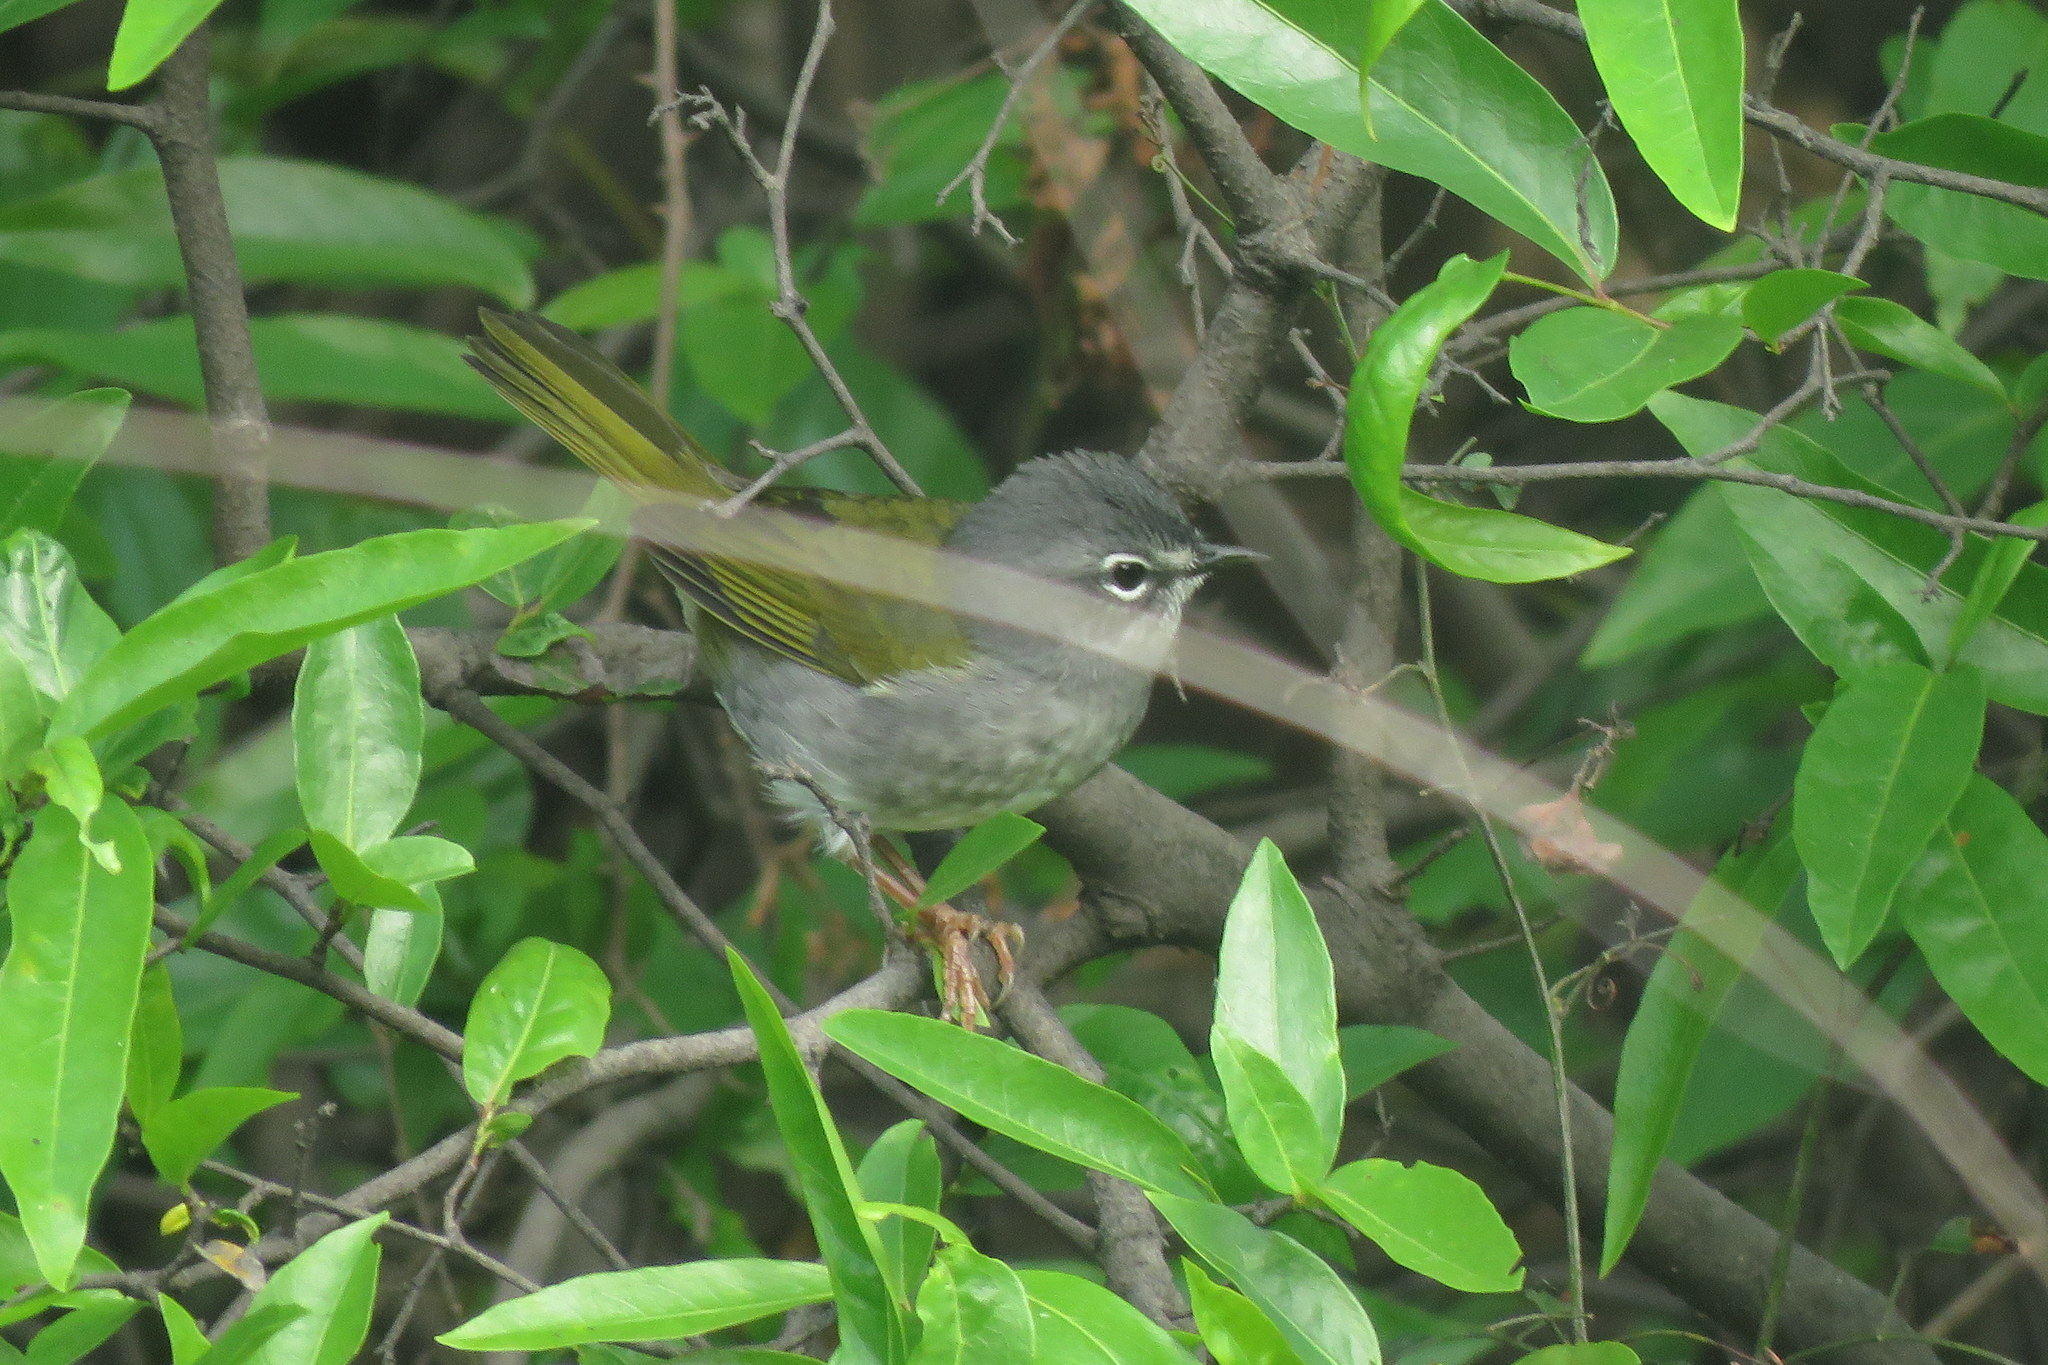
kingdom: Animalia
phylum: Chordata
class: Aves
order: Passeriformes
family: Parulidae
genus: Myiothlypis
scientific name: Myiothlypis leucoblephara
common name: White-rimmed warbler
